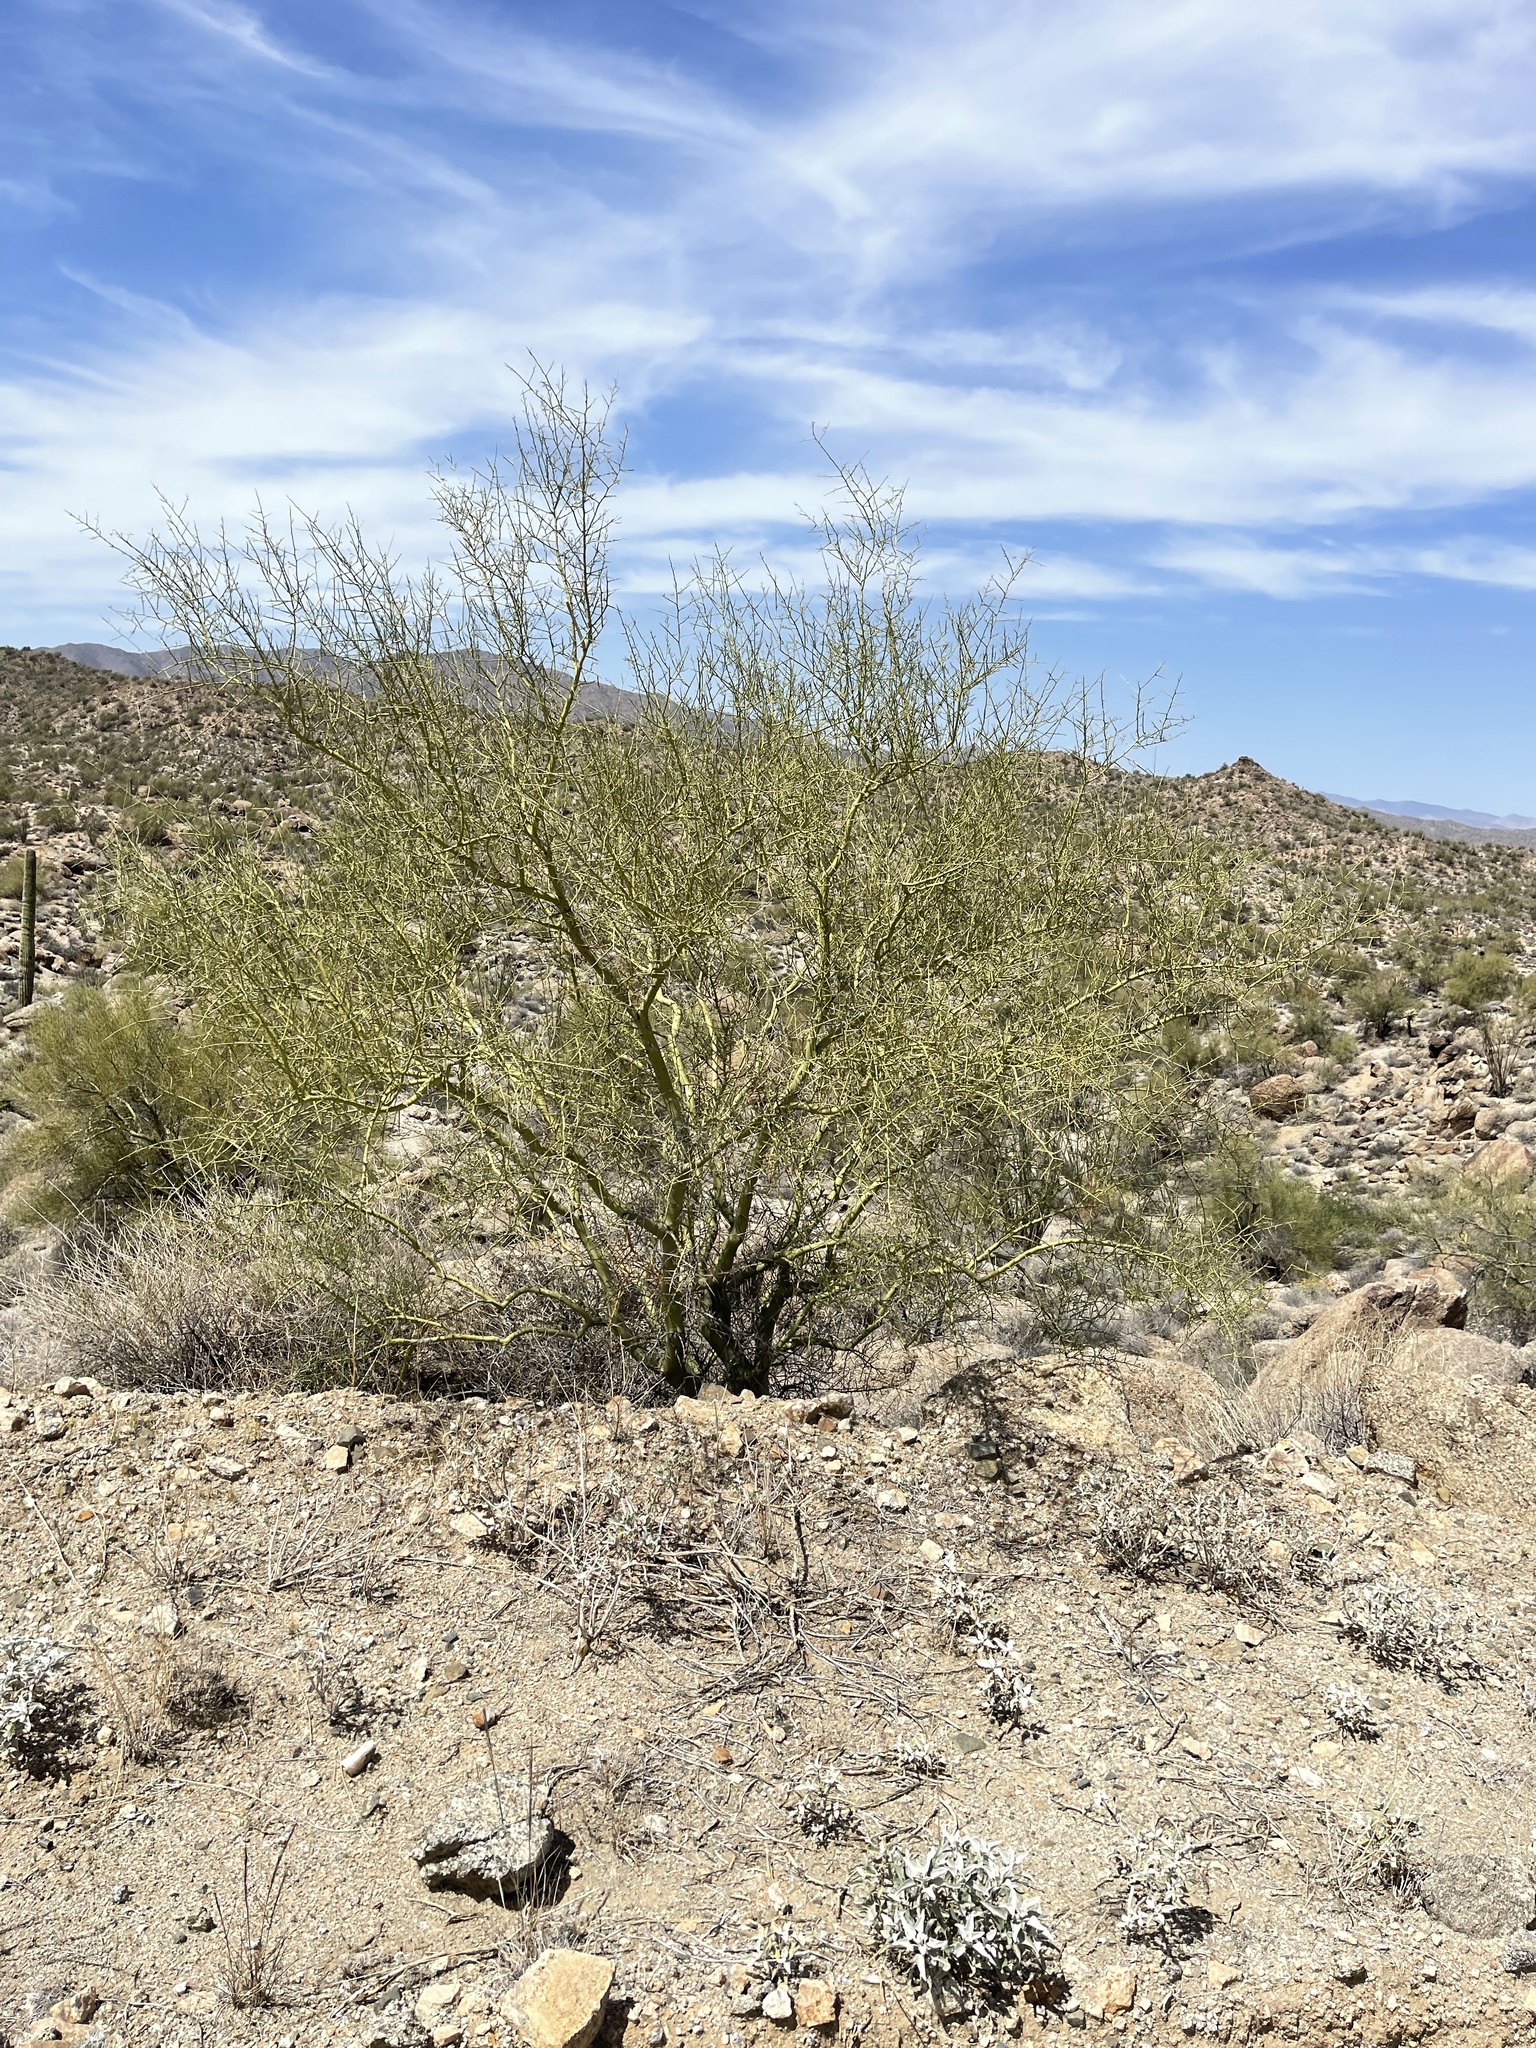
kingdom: Plantae
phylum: Tracheophyta
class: Magnoliopsida
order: Fabales
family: Fabaceae
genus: Parkinsonia
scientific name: Parkinsonia microphylla
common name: Yellow paloverde
